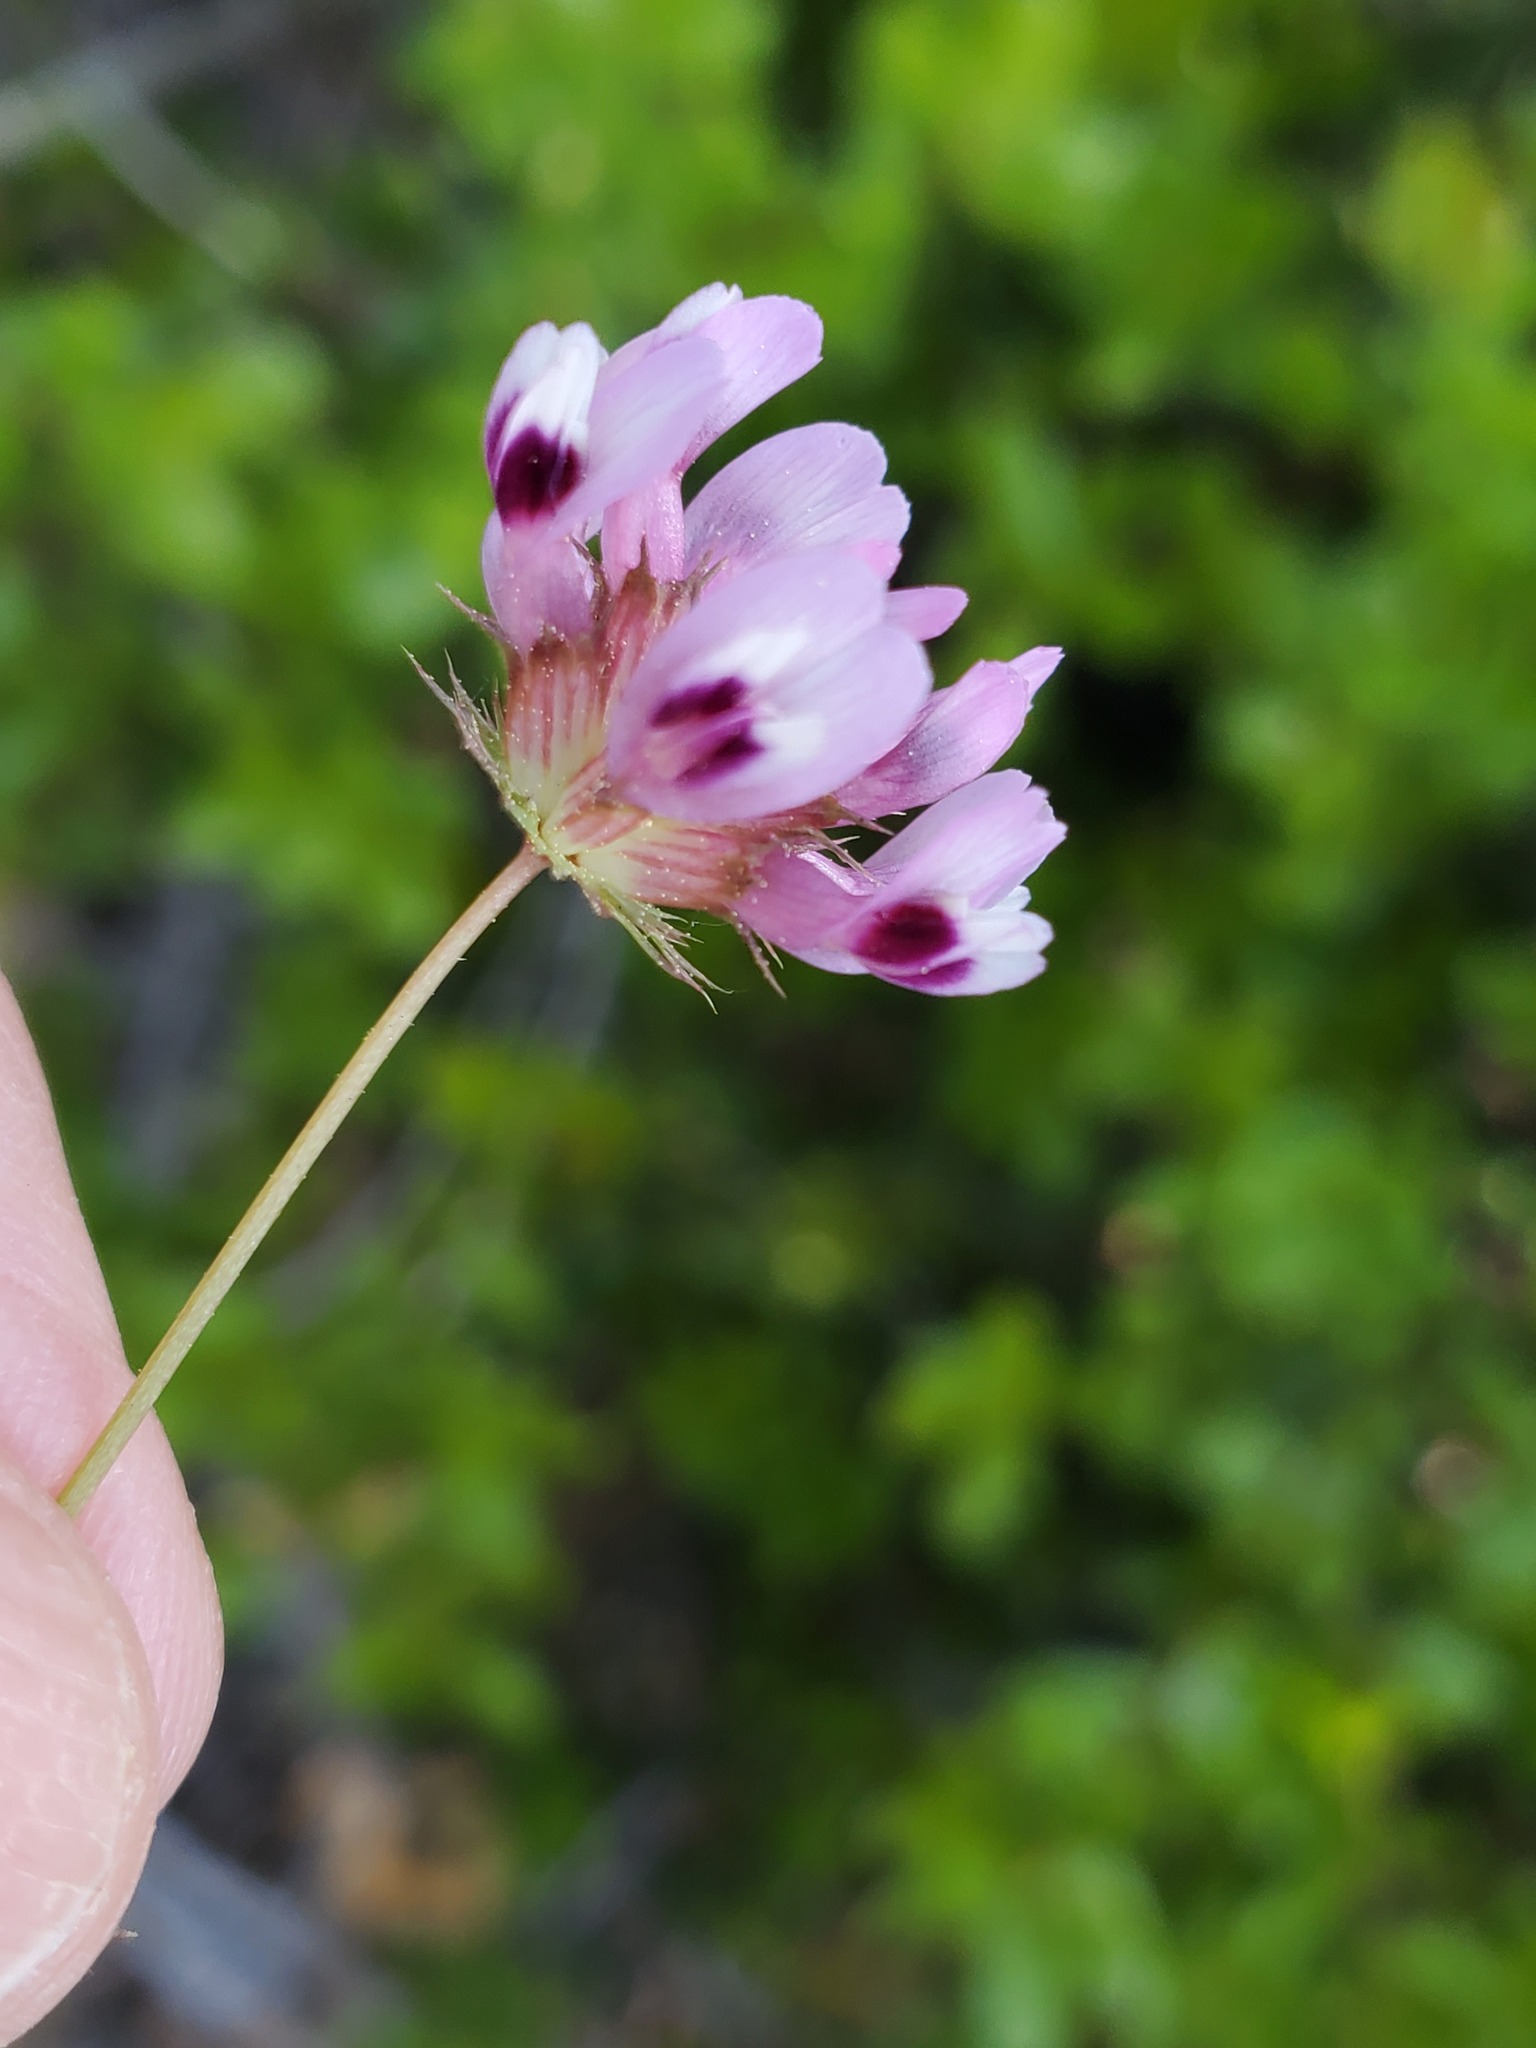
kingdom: Plantae
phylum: Tracheophyta
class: Magnoliopsida
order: Fabales
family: Fabaceae
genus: Trifolium
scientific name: Trifolium willdenovii
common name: Tomcat clover
